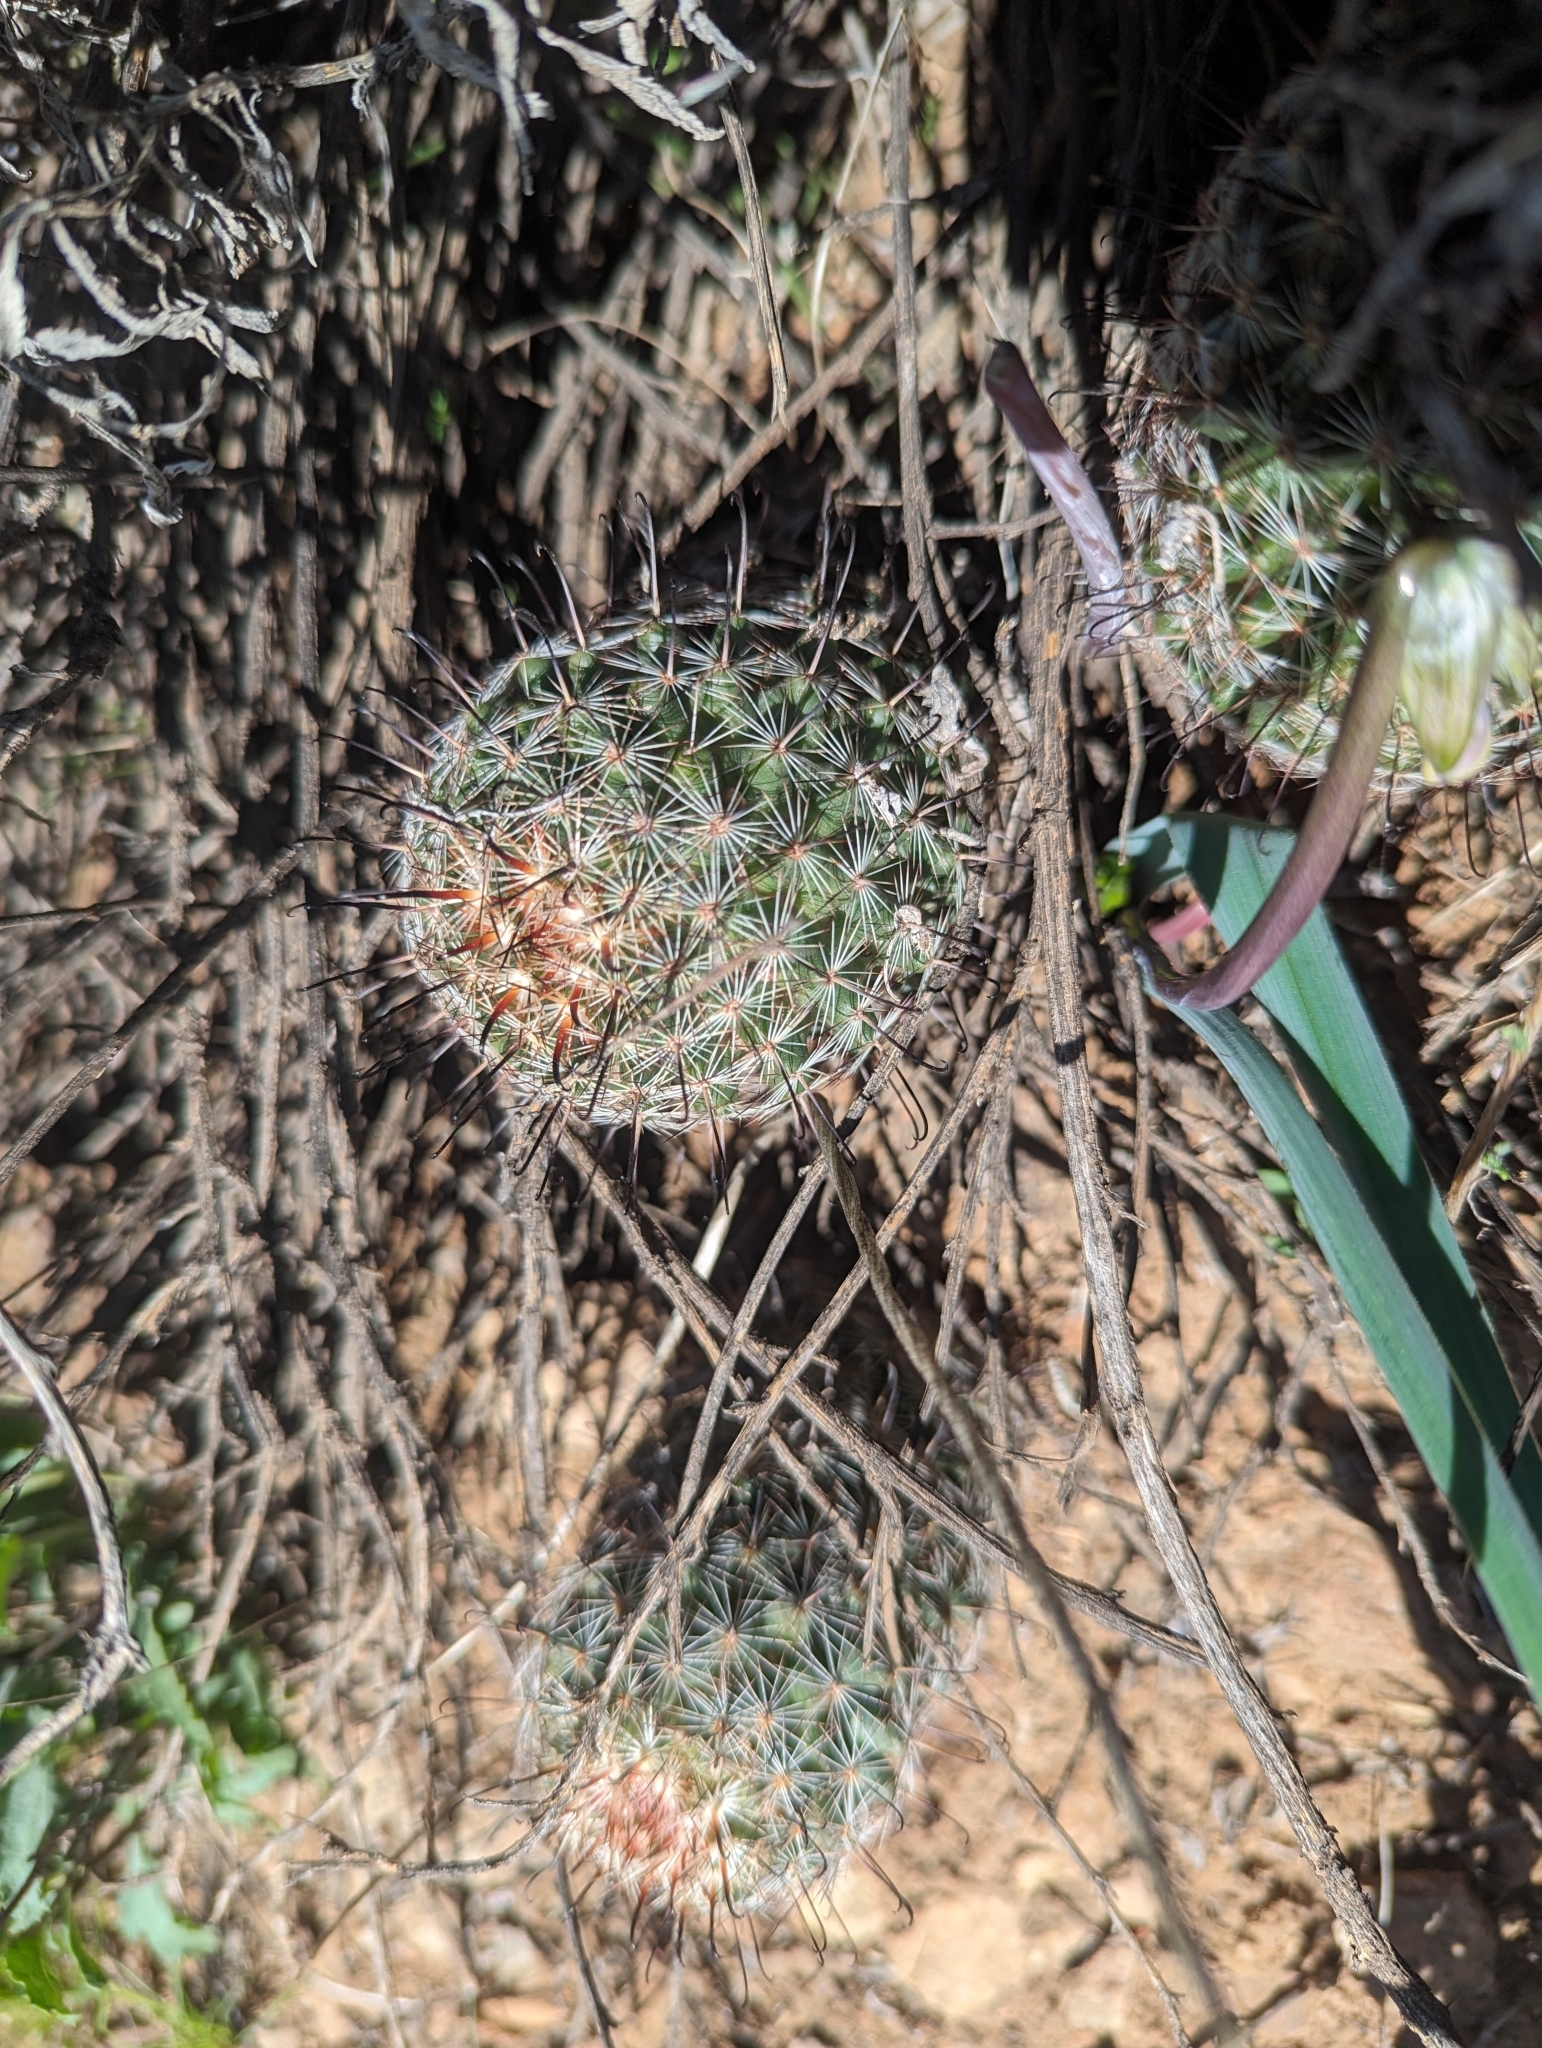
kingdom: Plantae
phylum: Tracheophyta
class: Magnoliopsida
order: Caryophyllales
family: Cactaceae
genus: Cochemiea
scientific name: Cochemiea grahamii
